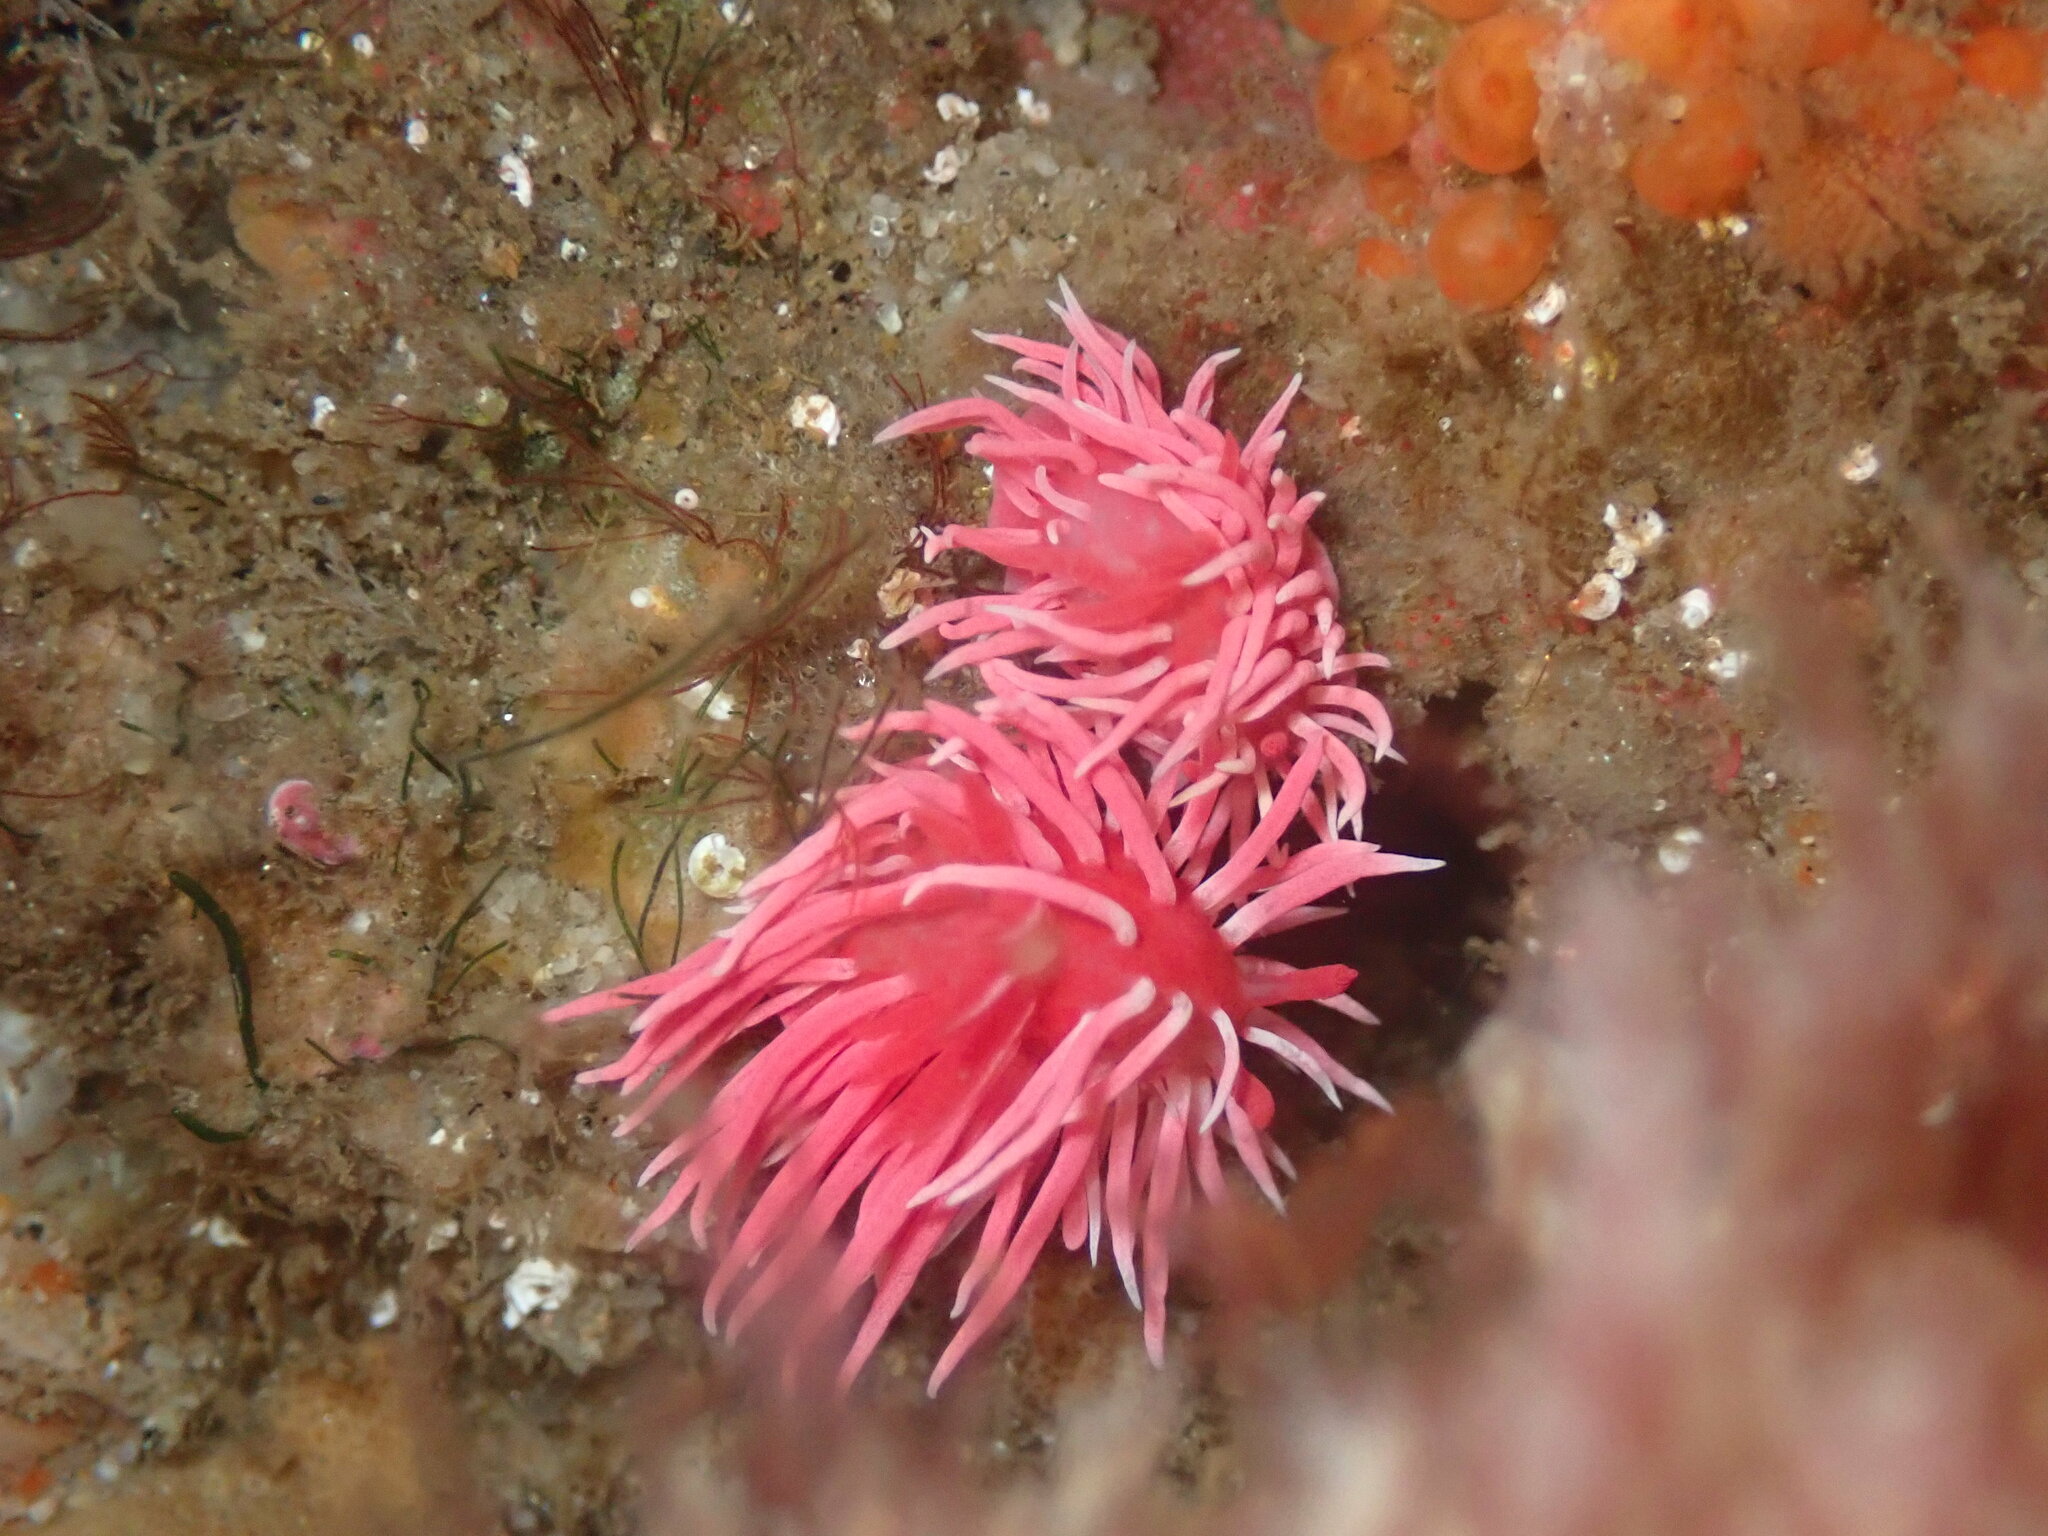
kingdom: Animalia
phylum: Mollusca
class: Gastropoda
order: Nudibranchia
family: Goniodorididae
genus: Okenia
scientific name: Okenia
